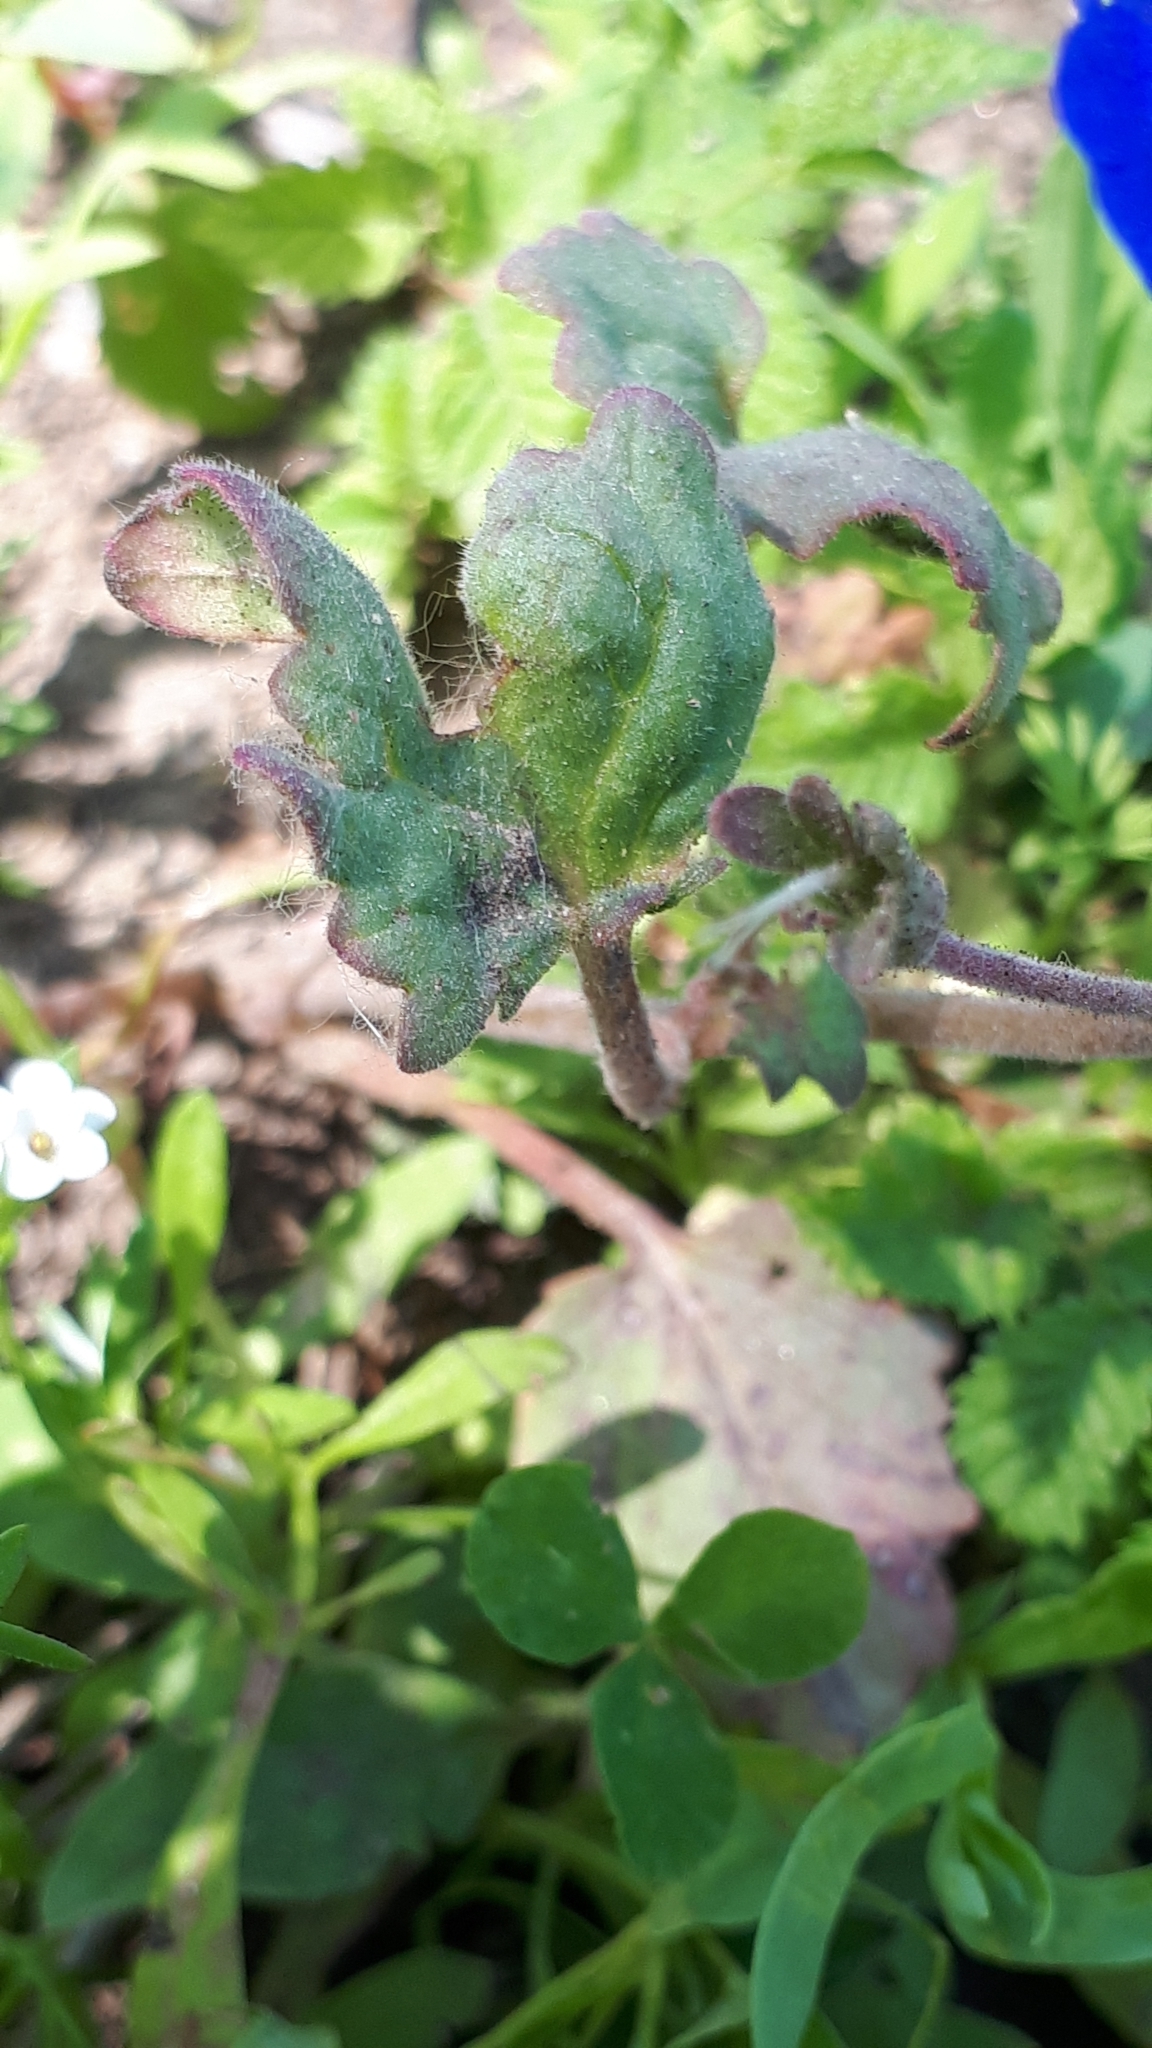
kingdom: Plantae
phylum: Tracheophyta
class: Magnoliopsida
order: Boraginales
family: Hydrophyllaceae
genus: Phacelia
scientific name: Phacelia campanularia
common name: California bluebell
